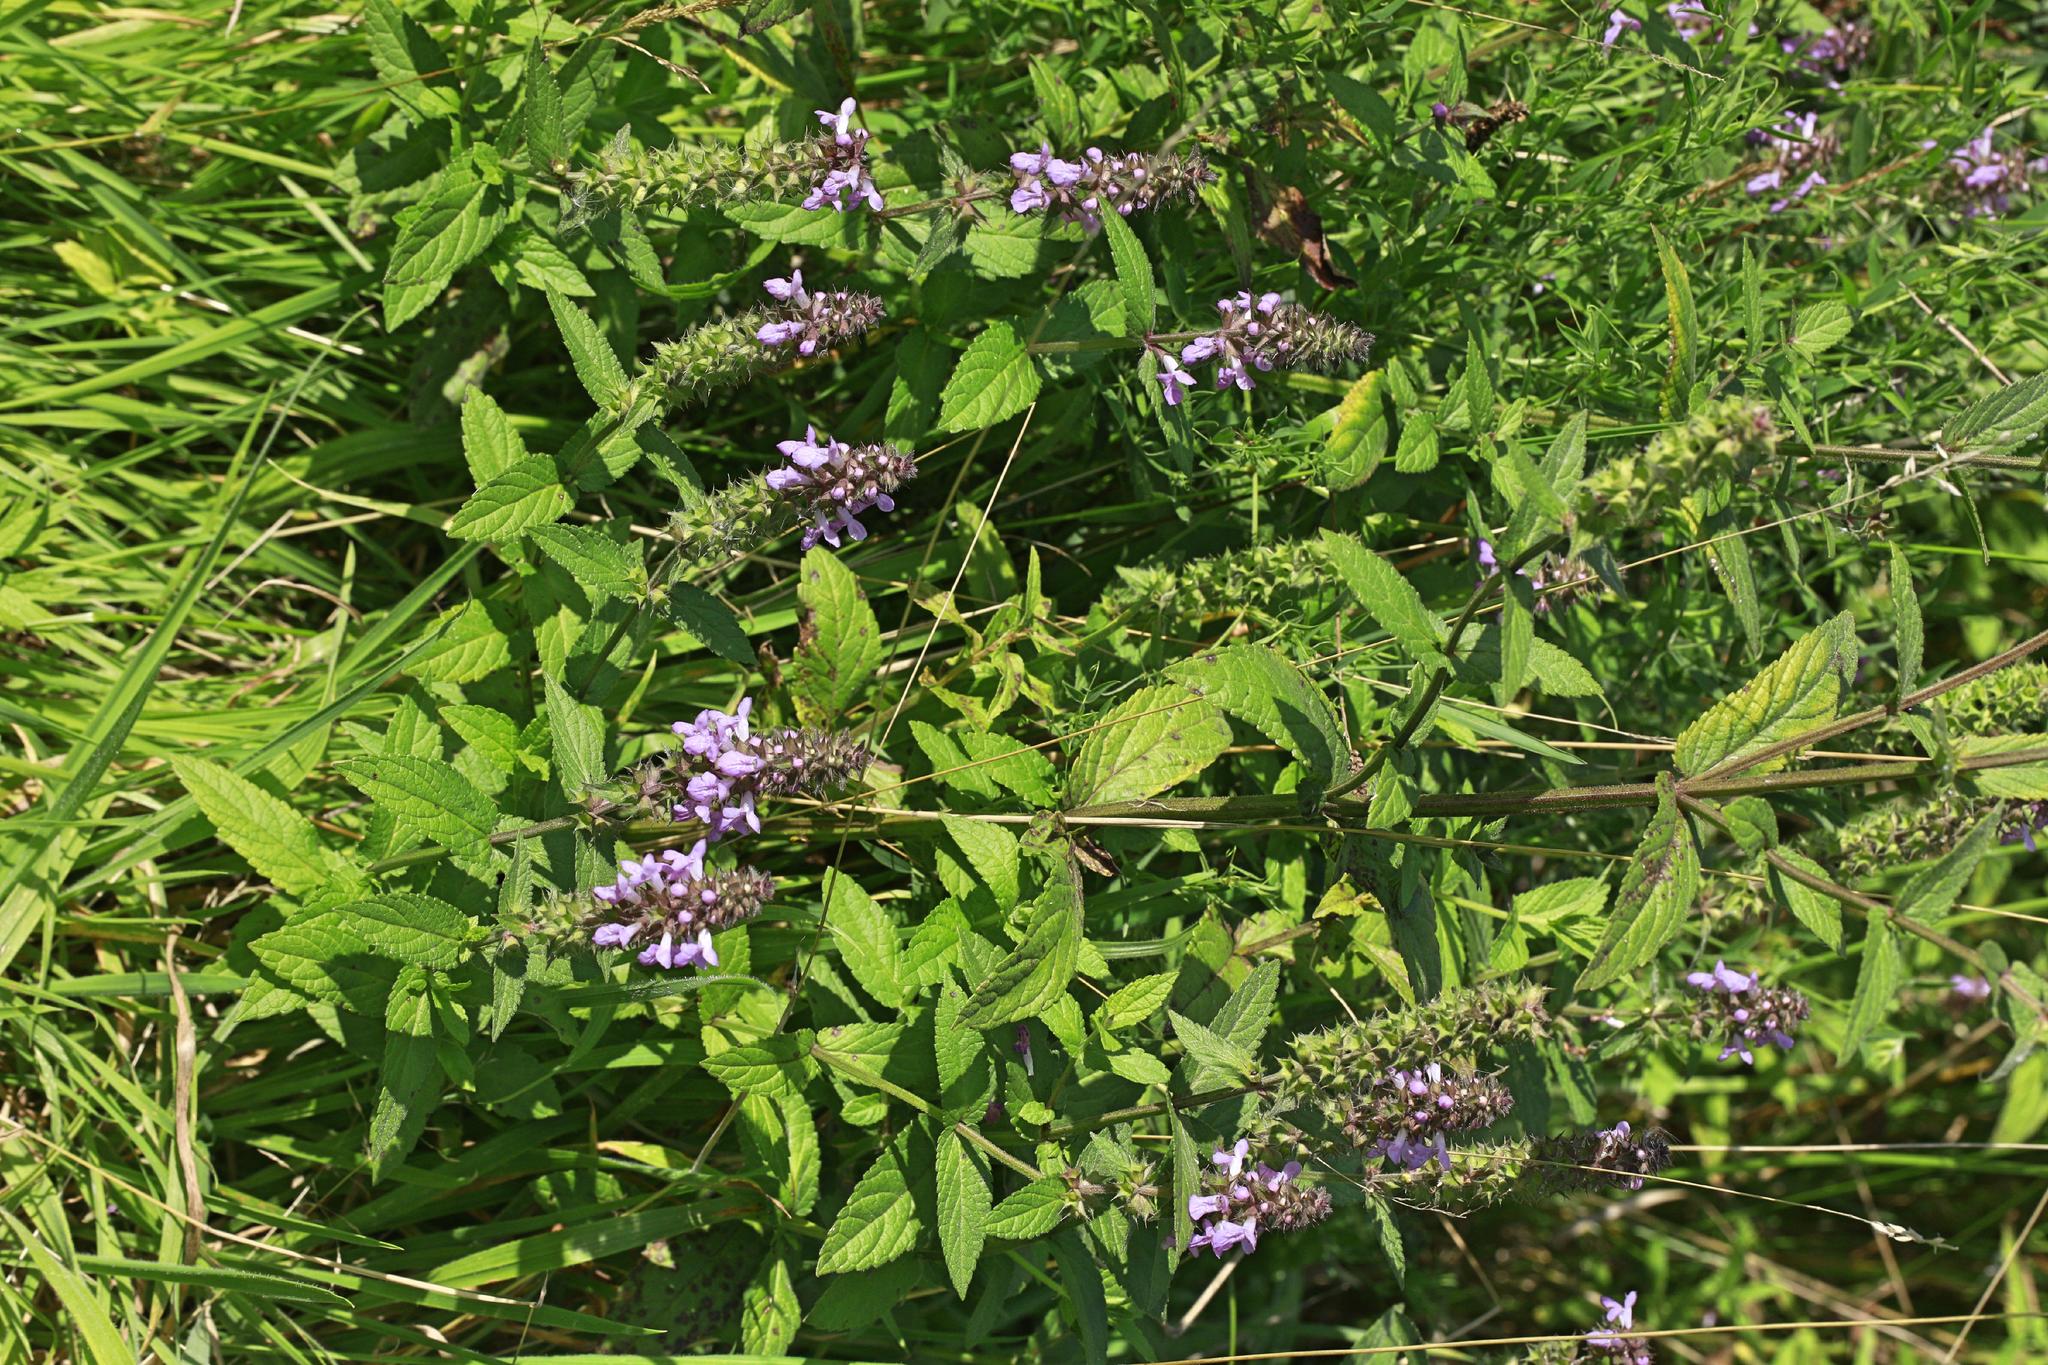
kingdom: Plantae
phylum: Tracheophyta
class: Magnoliopsida
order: Lamiales
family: Lamiaceae
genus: Stachys
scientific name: Stachys palustris
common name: Marsh woundwort
